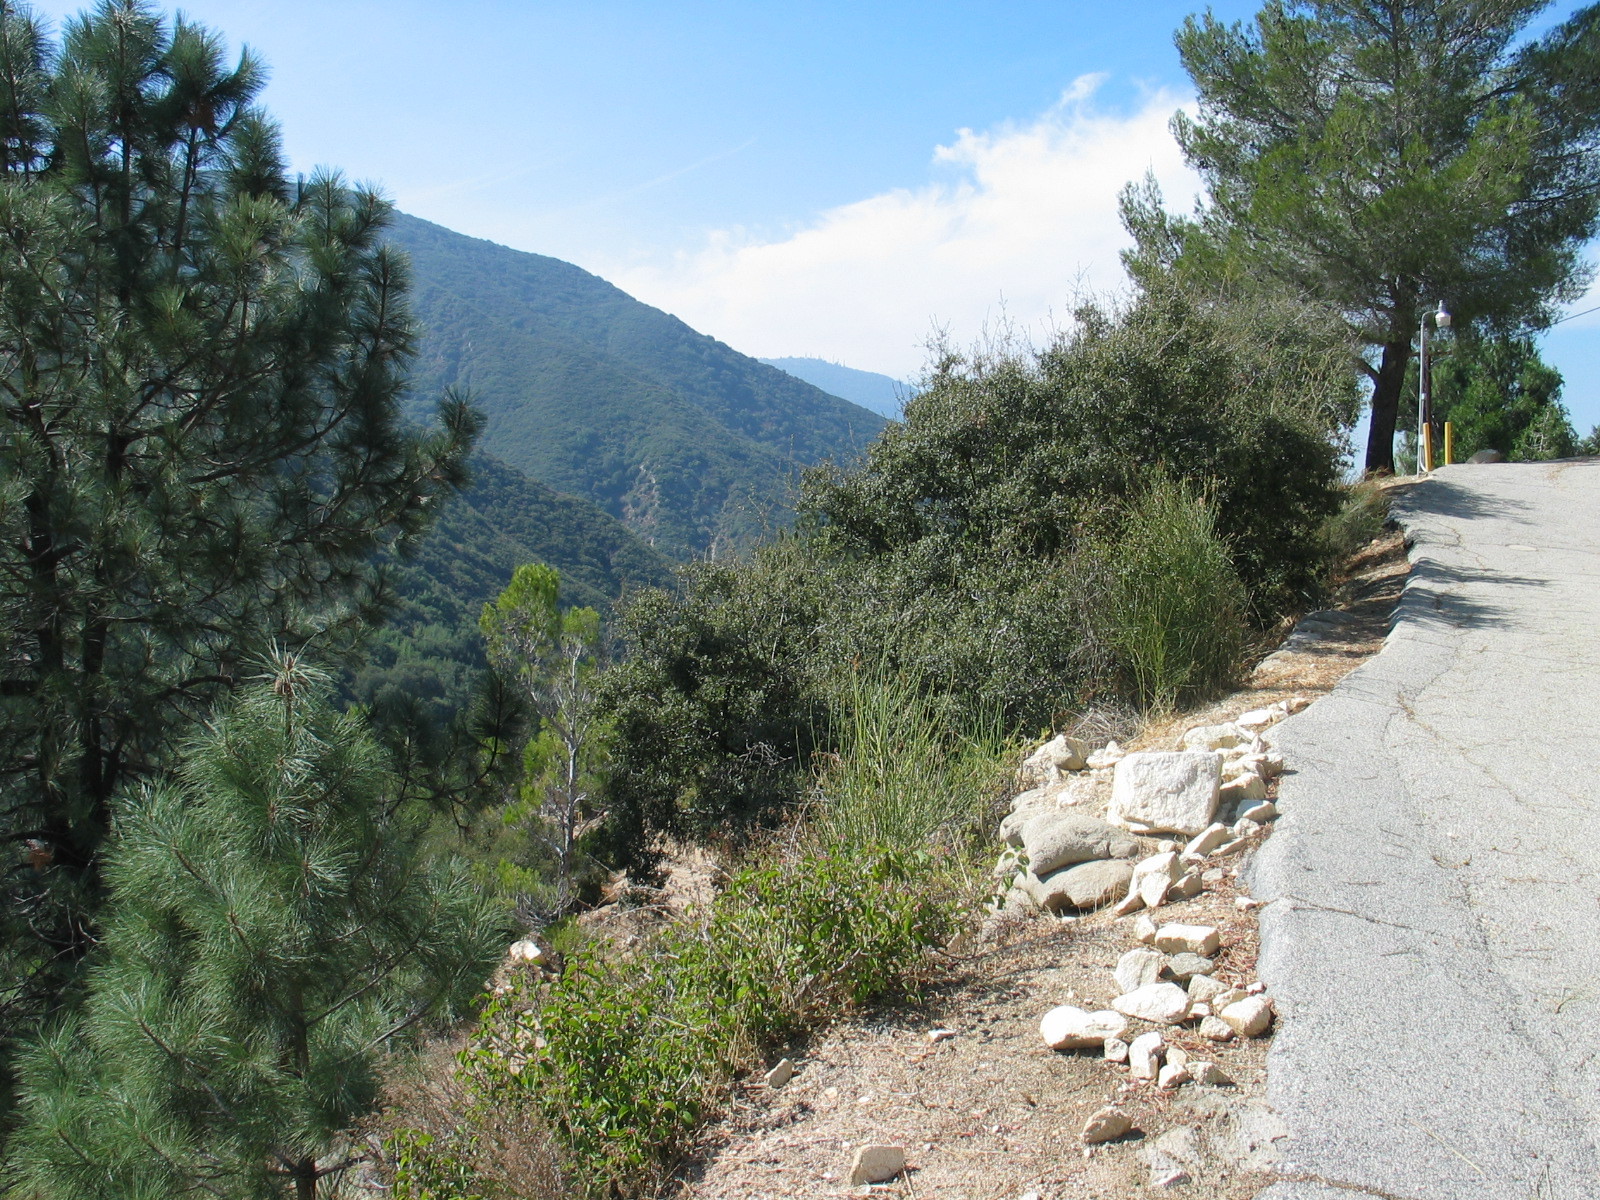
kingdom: Plantae
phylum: Tracheophyta
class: Magnoliopsida
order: Sapindales
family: Anacardiaceae
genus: Rhus
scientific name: Rhus ovata
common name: Sugar sumac
